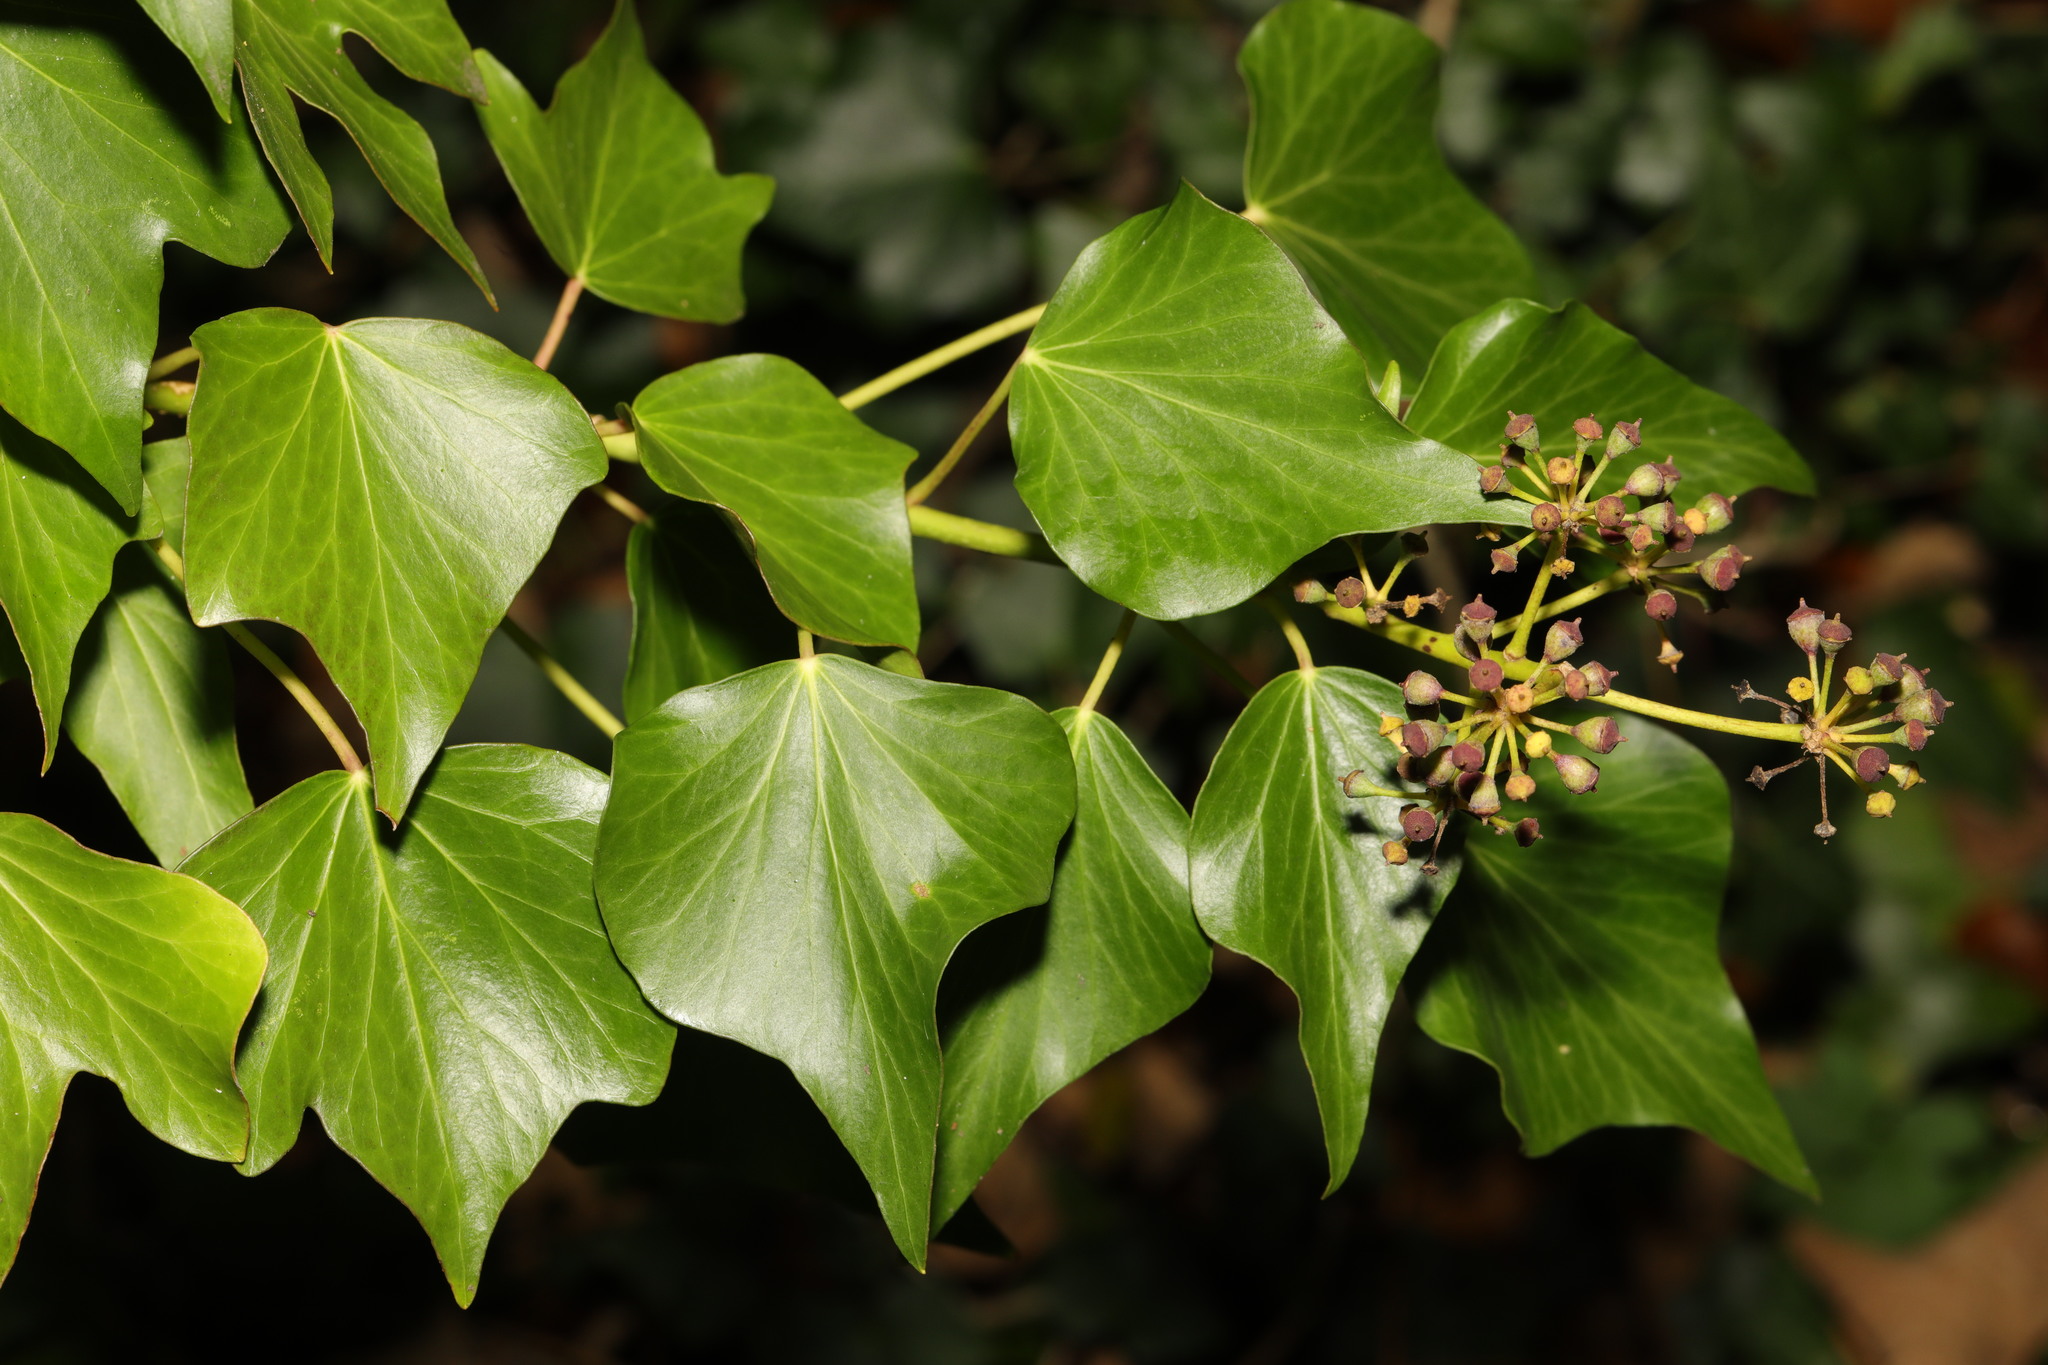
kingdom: Plantae
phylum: Tracheophyta
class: Magnoliopsida
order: Apiales
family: Araliaceae
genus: Hedera
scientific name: Hedera helix
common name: Ivy
